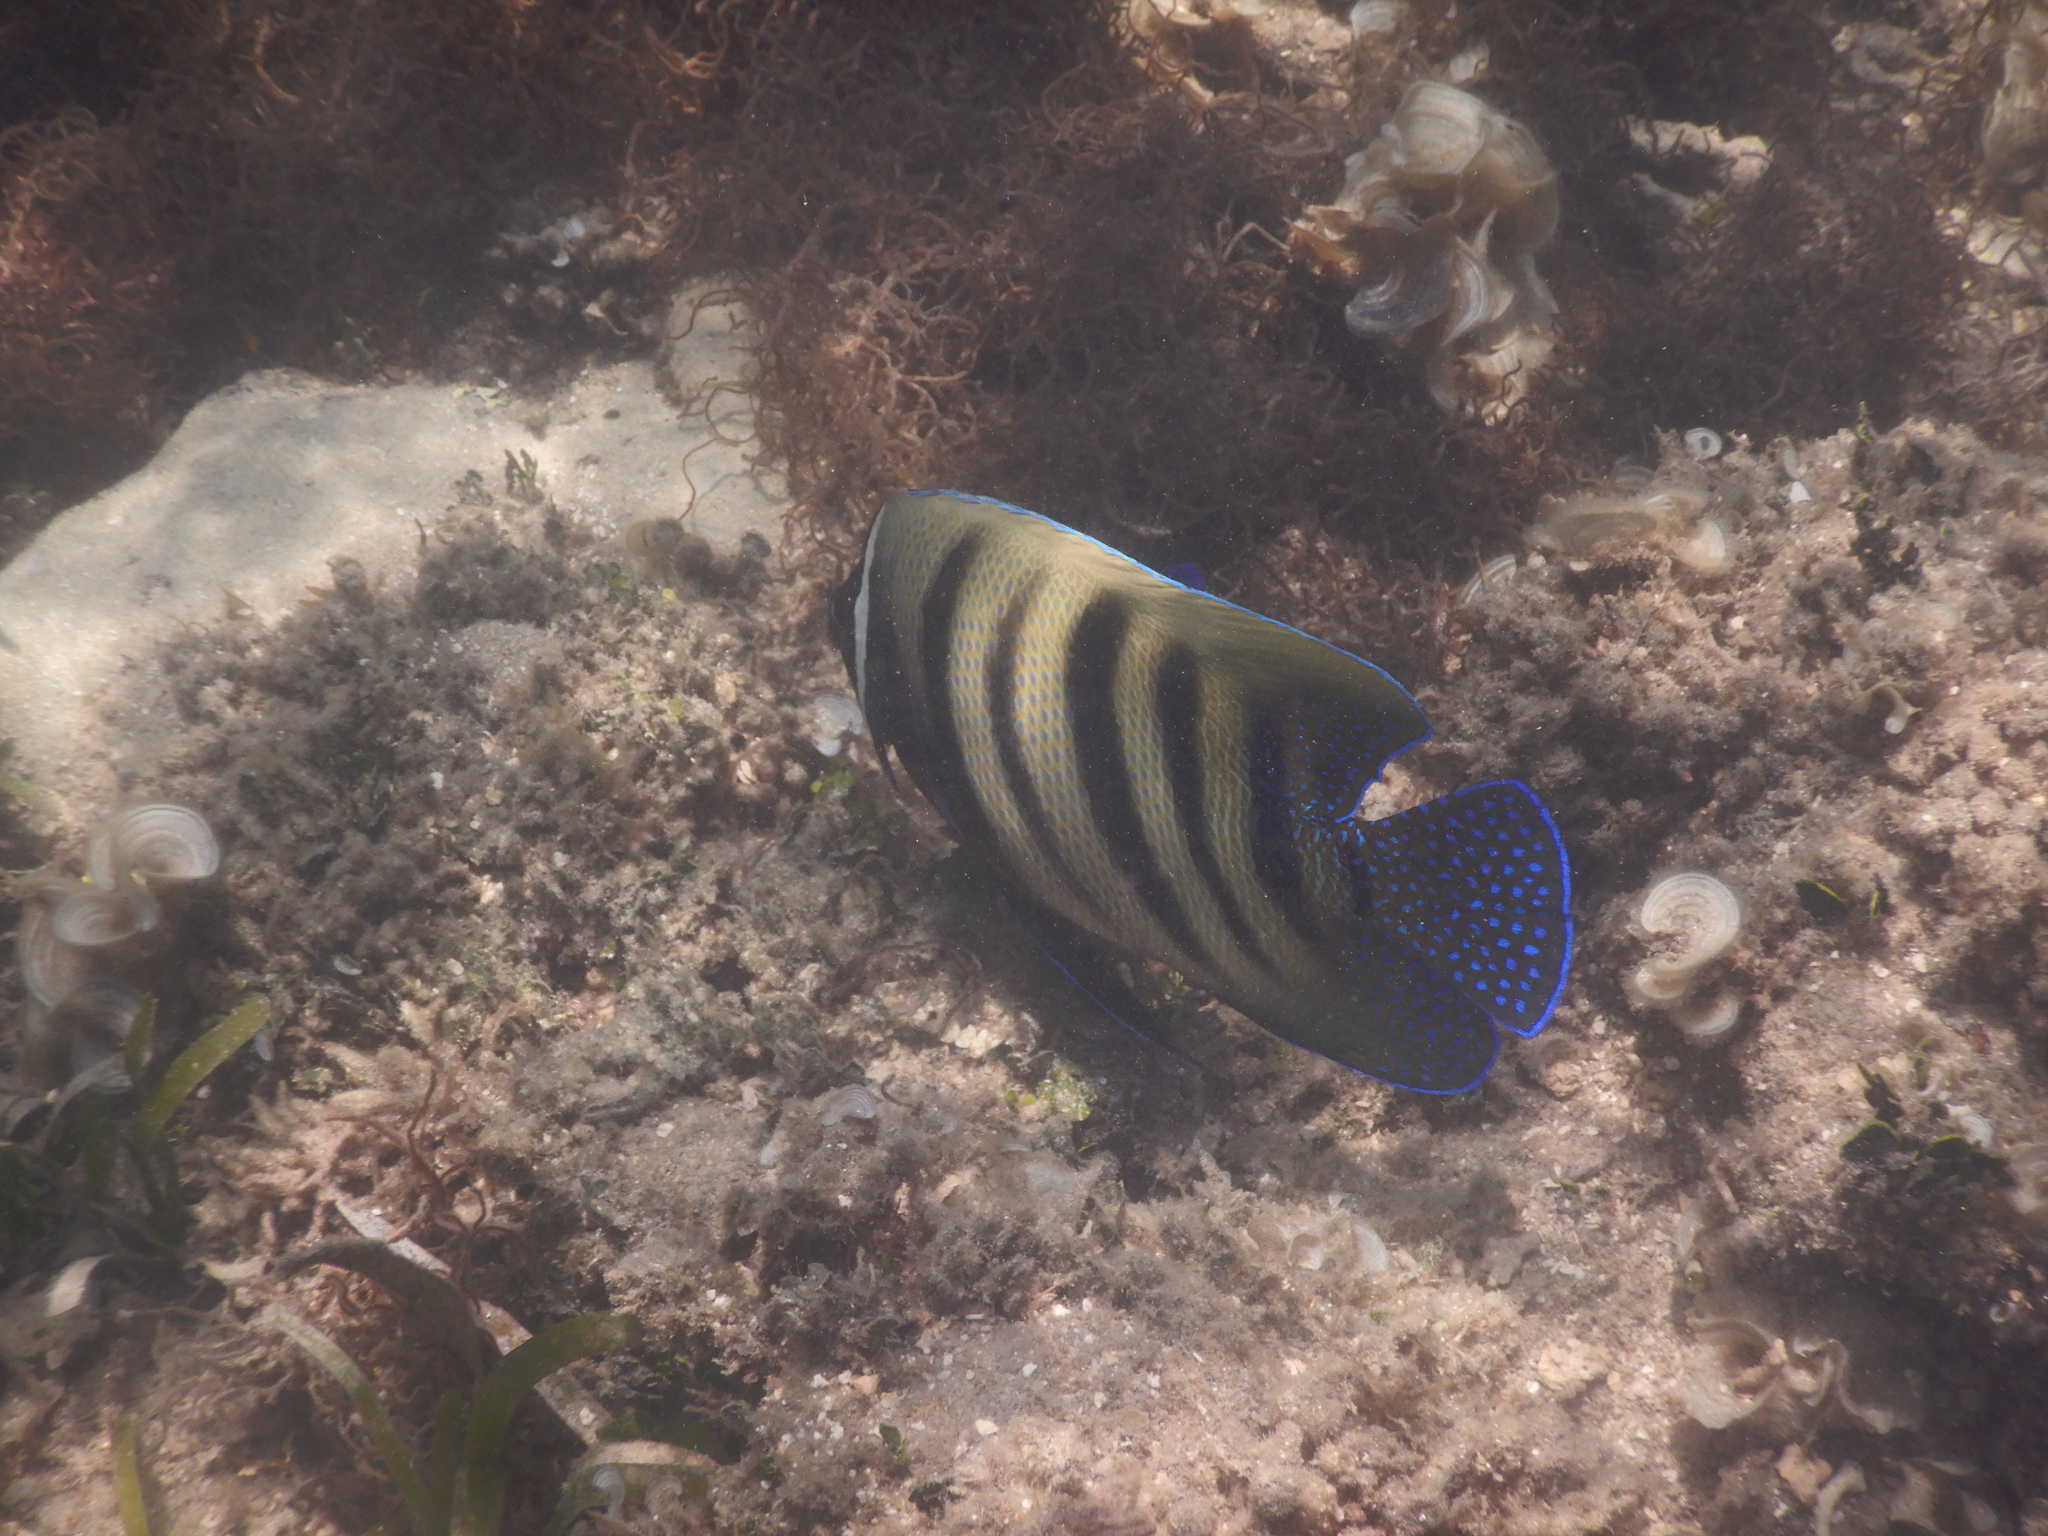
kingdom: Animalia
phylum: Chordata
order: Perciformes
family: Pomacanthidae
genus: Pomacanthus
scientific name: Pomacanthus sexstriatus
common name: Six-banded angelfish
